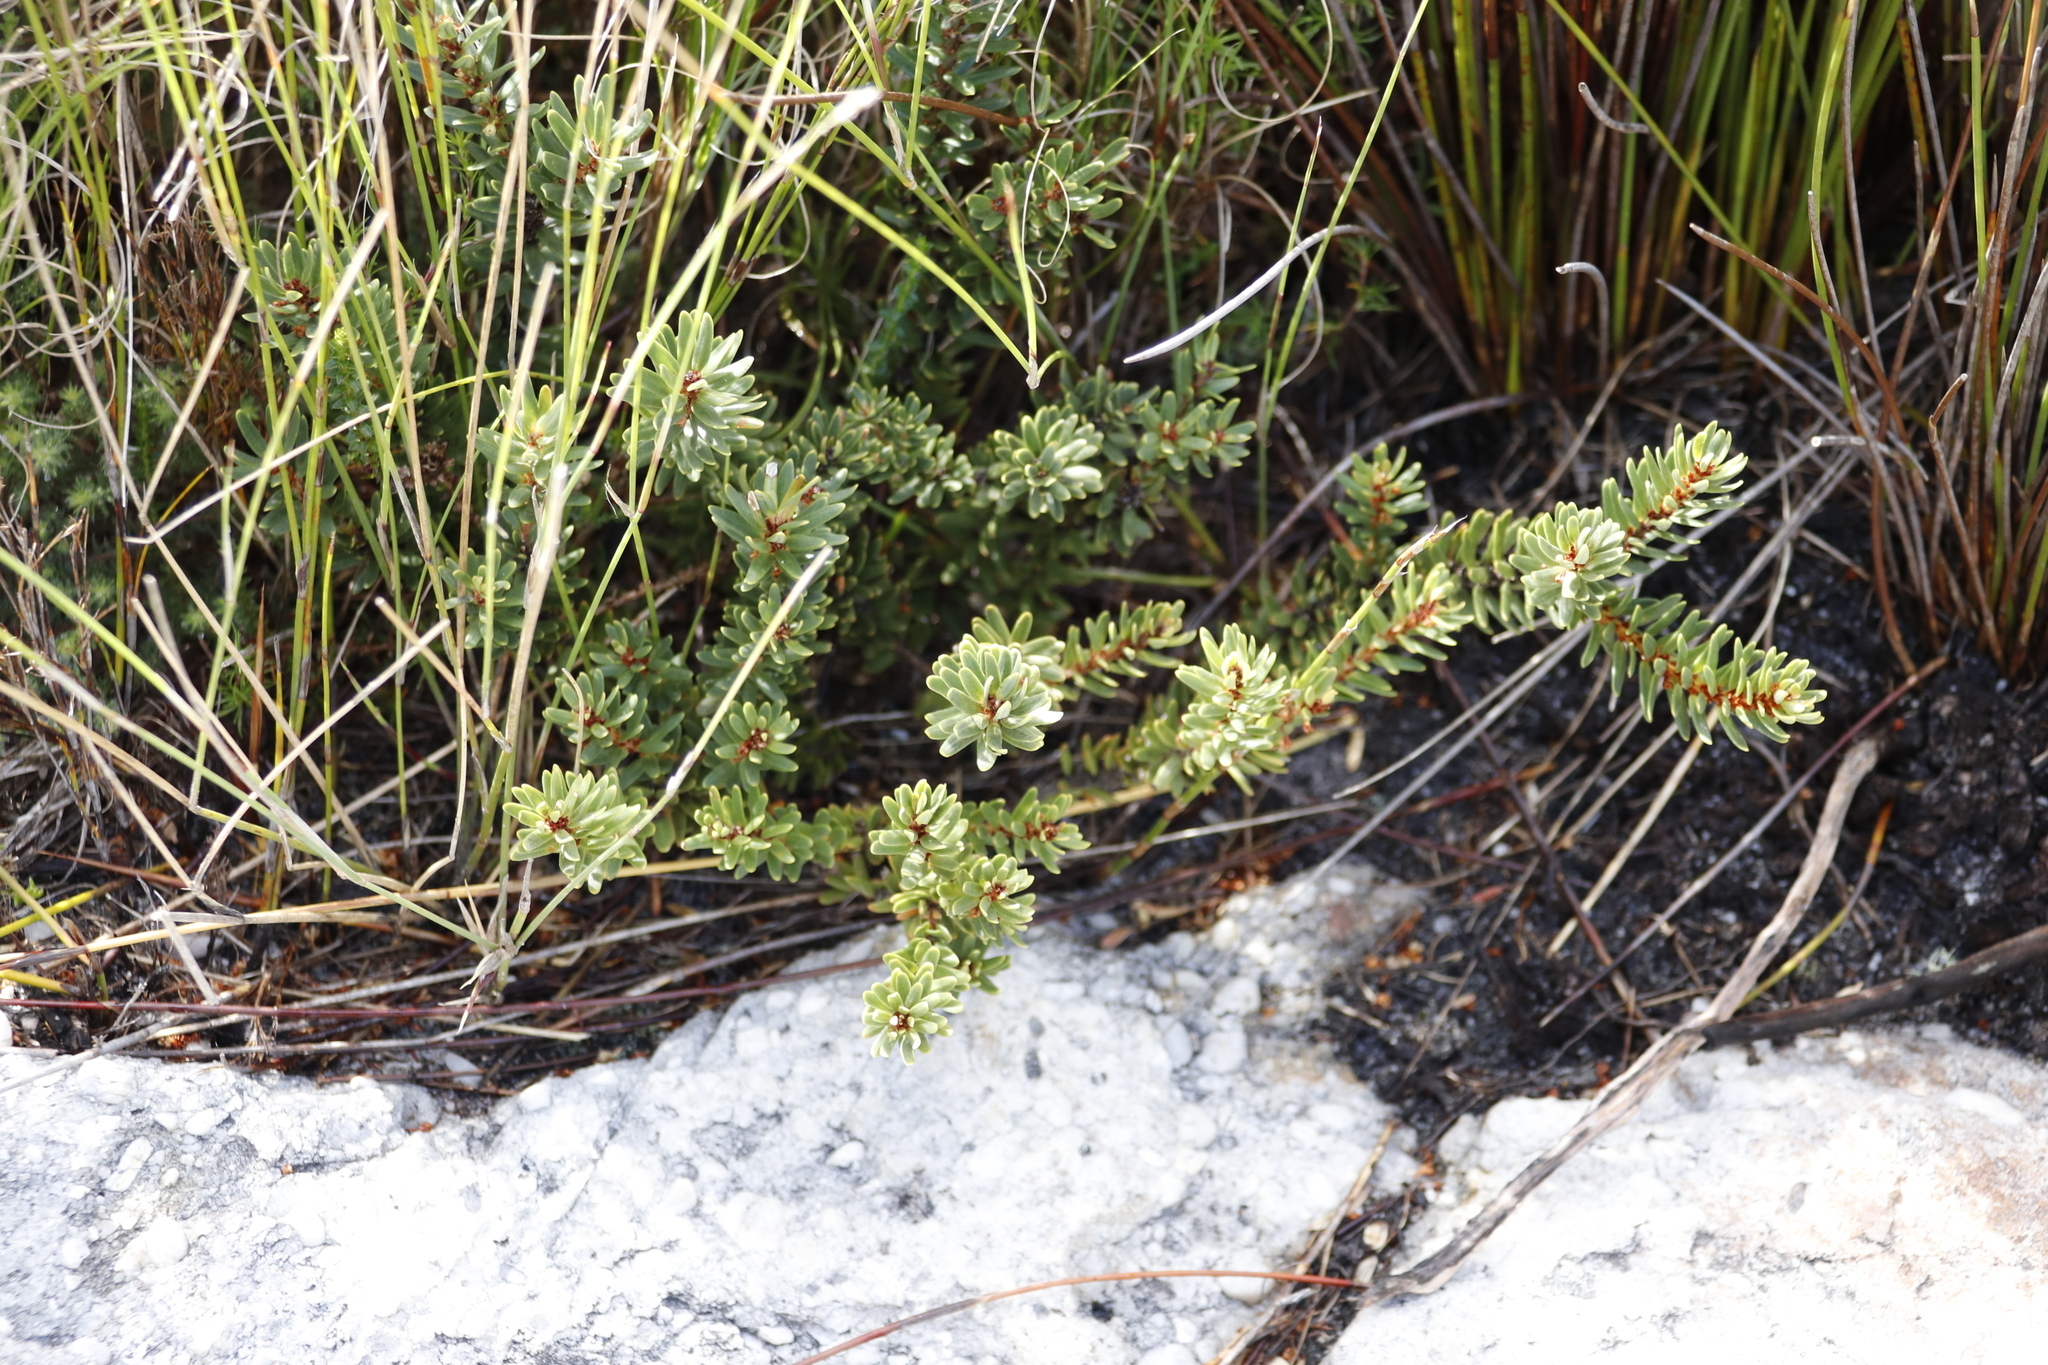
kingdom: Plantae
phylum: Tracheophyta
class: Magnoliopsida
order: Malpighiales
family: Peraceae
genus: Clutia
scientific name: Clutia polygonoides
